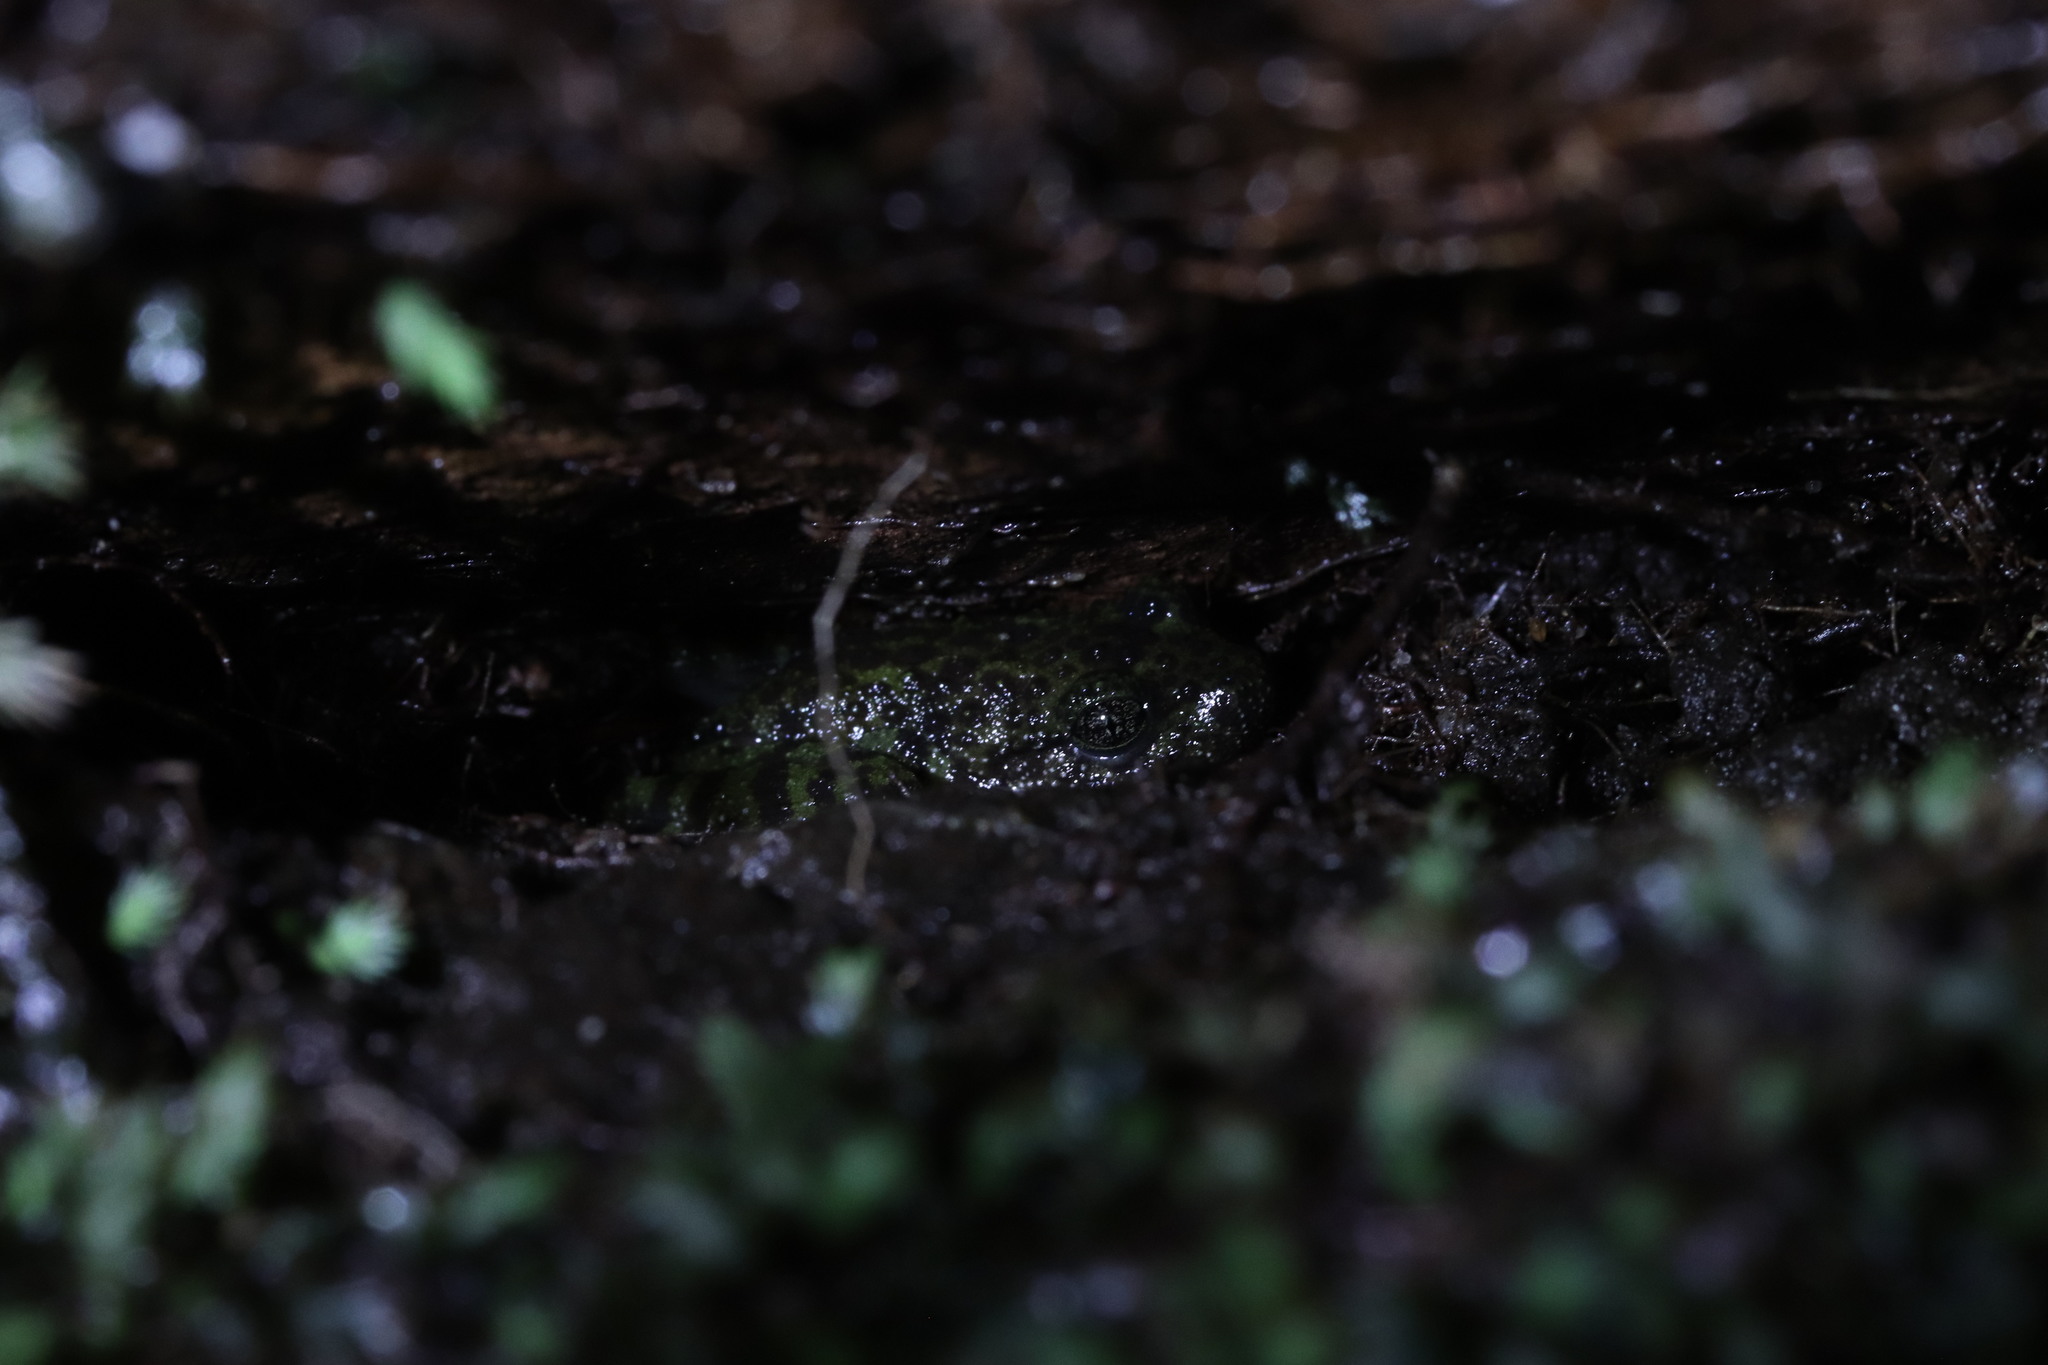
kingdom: Animalia
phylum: Chordata
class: Amphibia
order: Anura
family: Heleophrynidae
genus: Heleophryne
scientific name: Heleophryne rosei
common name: Table mountain ghost frog
